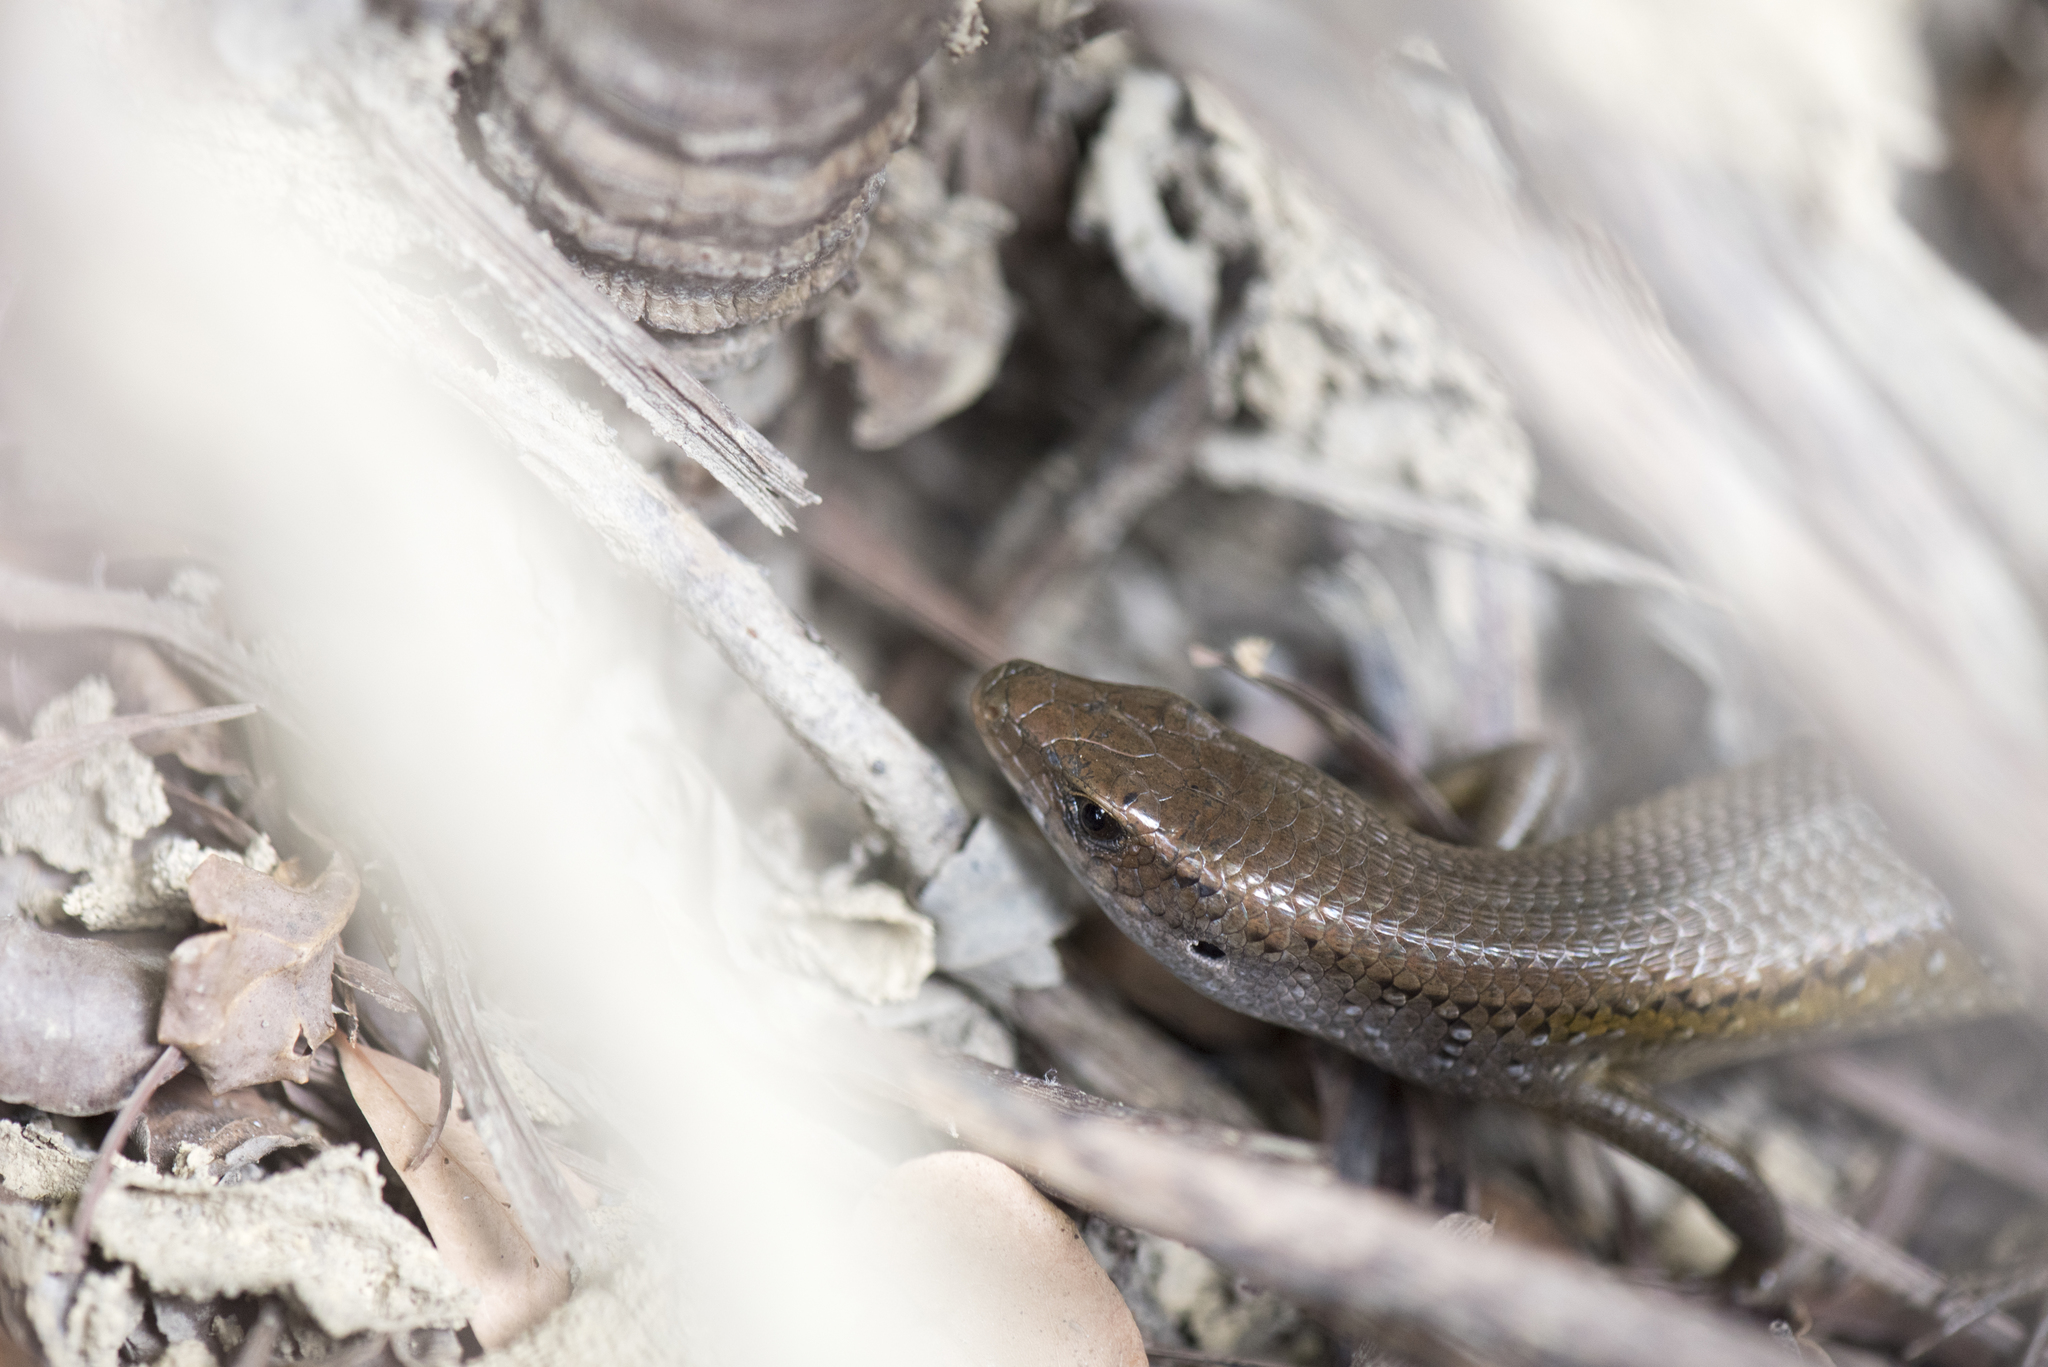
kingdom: Animalia
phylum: Chordata
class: Squamata
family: Scincidae
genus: Eutropis
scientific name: Eutropis multifasciata
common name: Common mabuya
